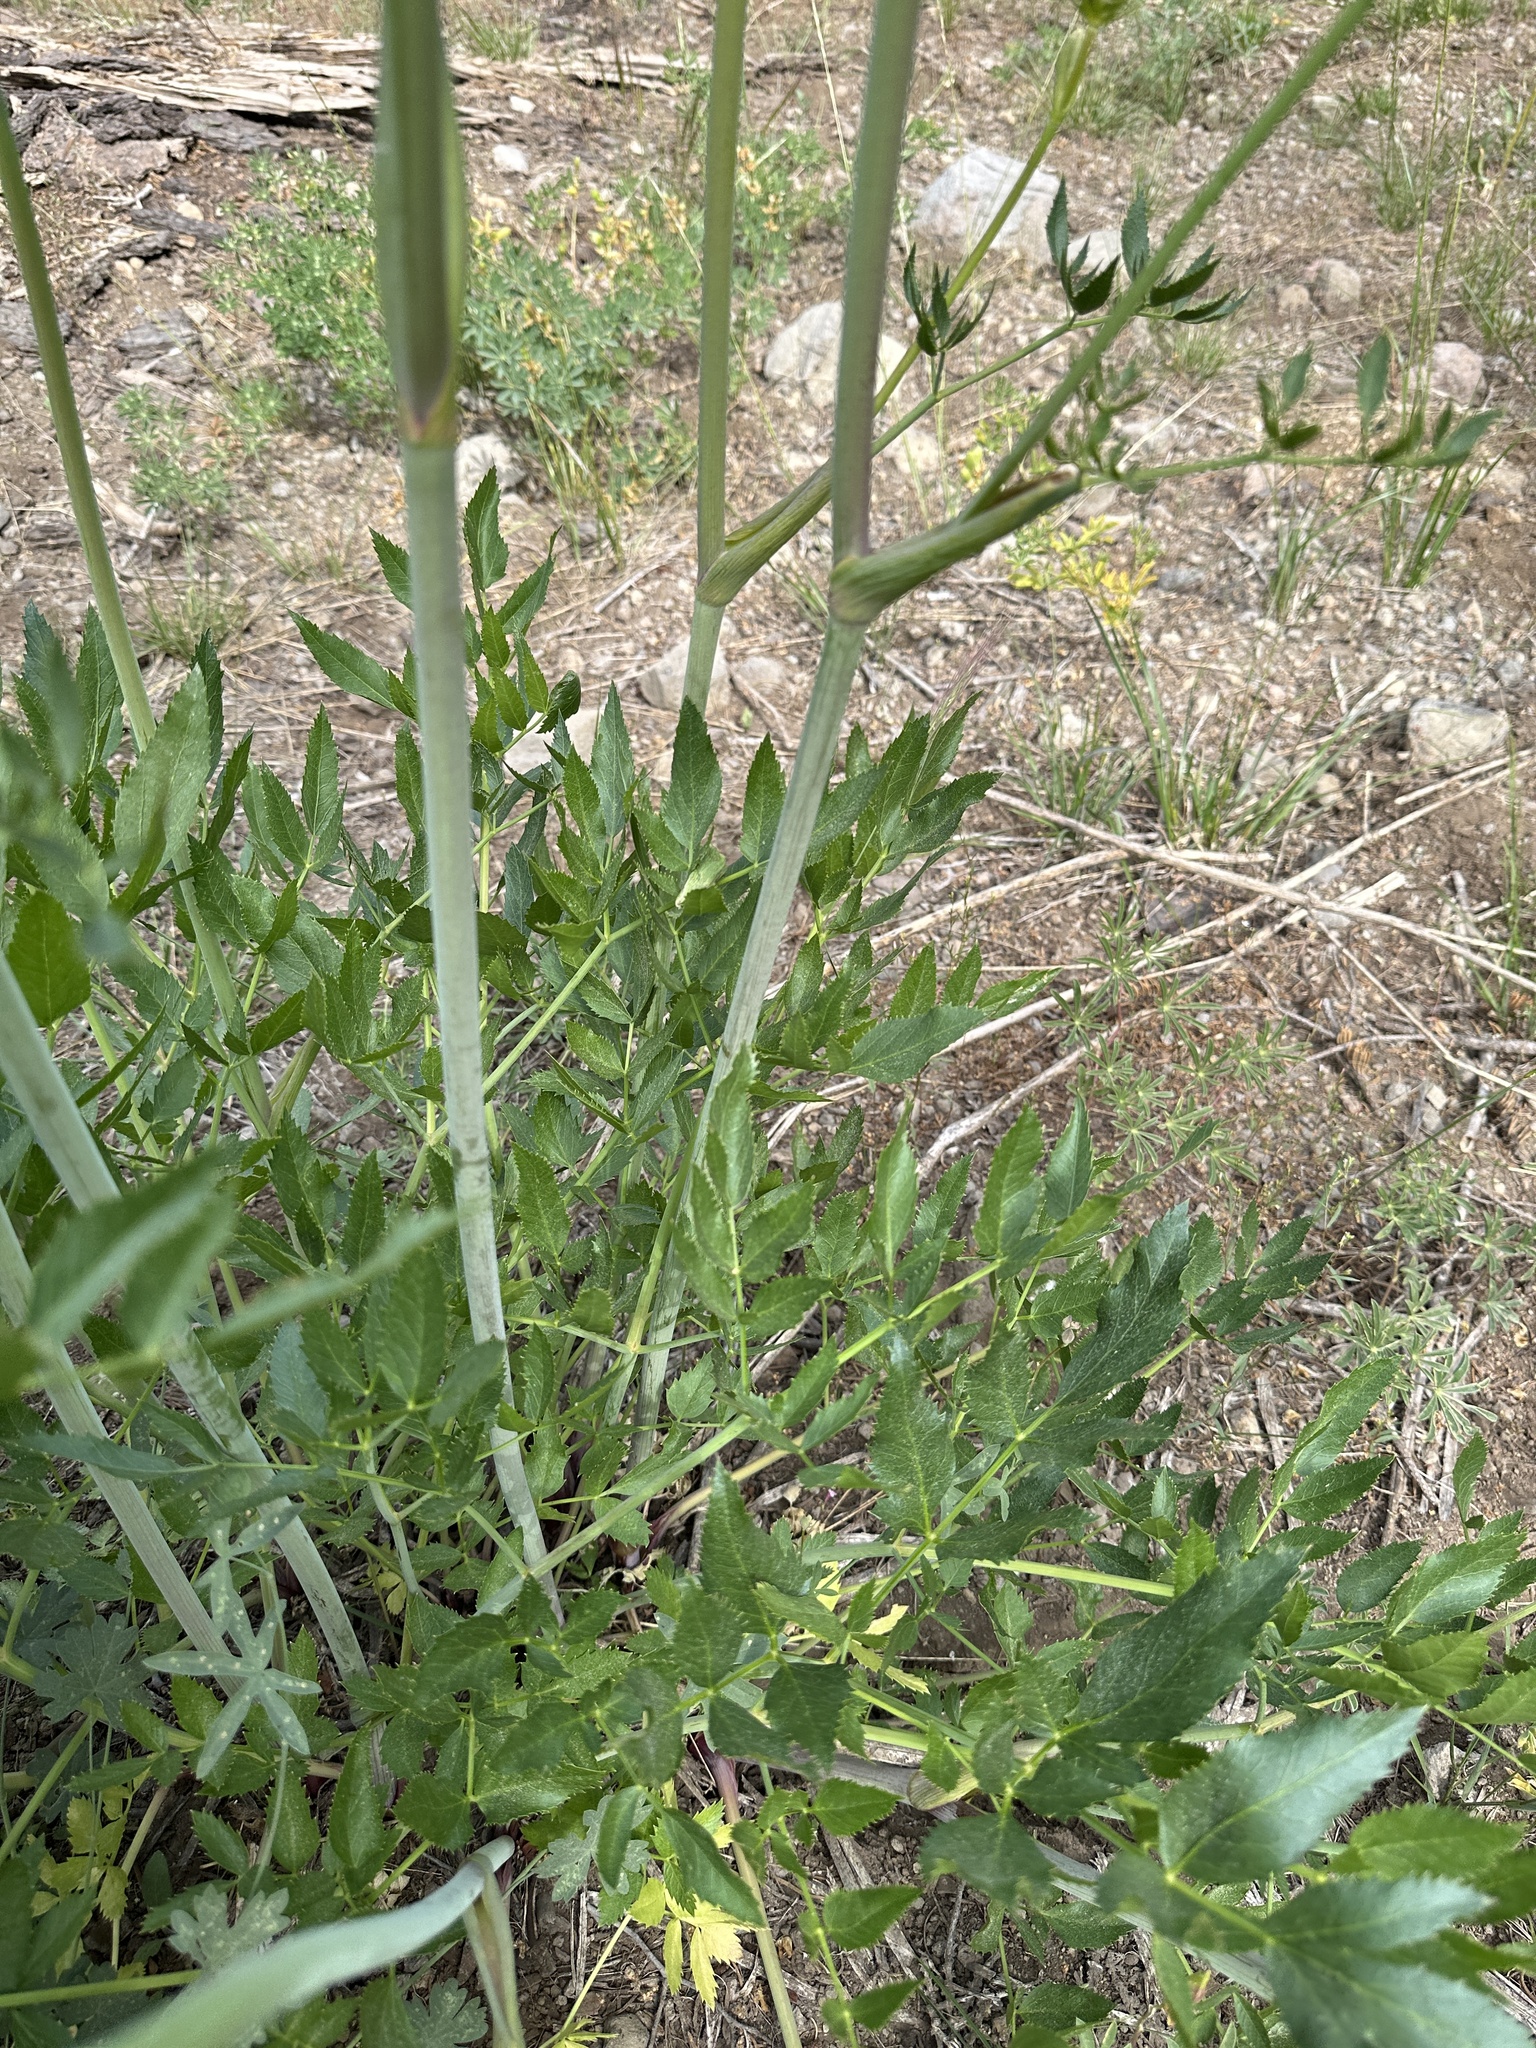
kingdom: Plantae
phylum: Tracheophyta
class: Magnoliopsida
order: Apiales
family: Apiaceae
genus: Angelica
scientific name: Angelica breweri
